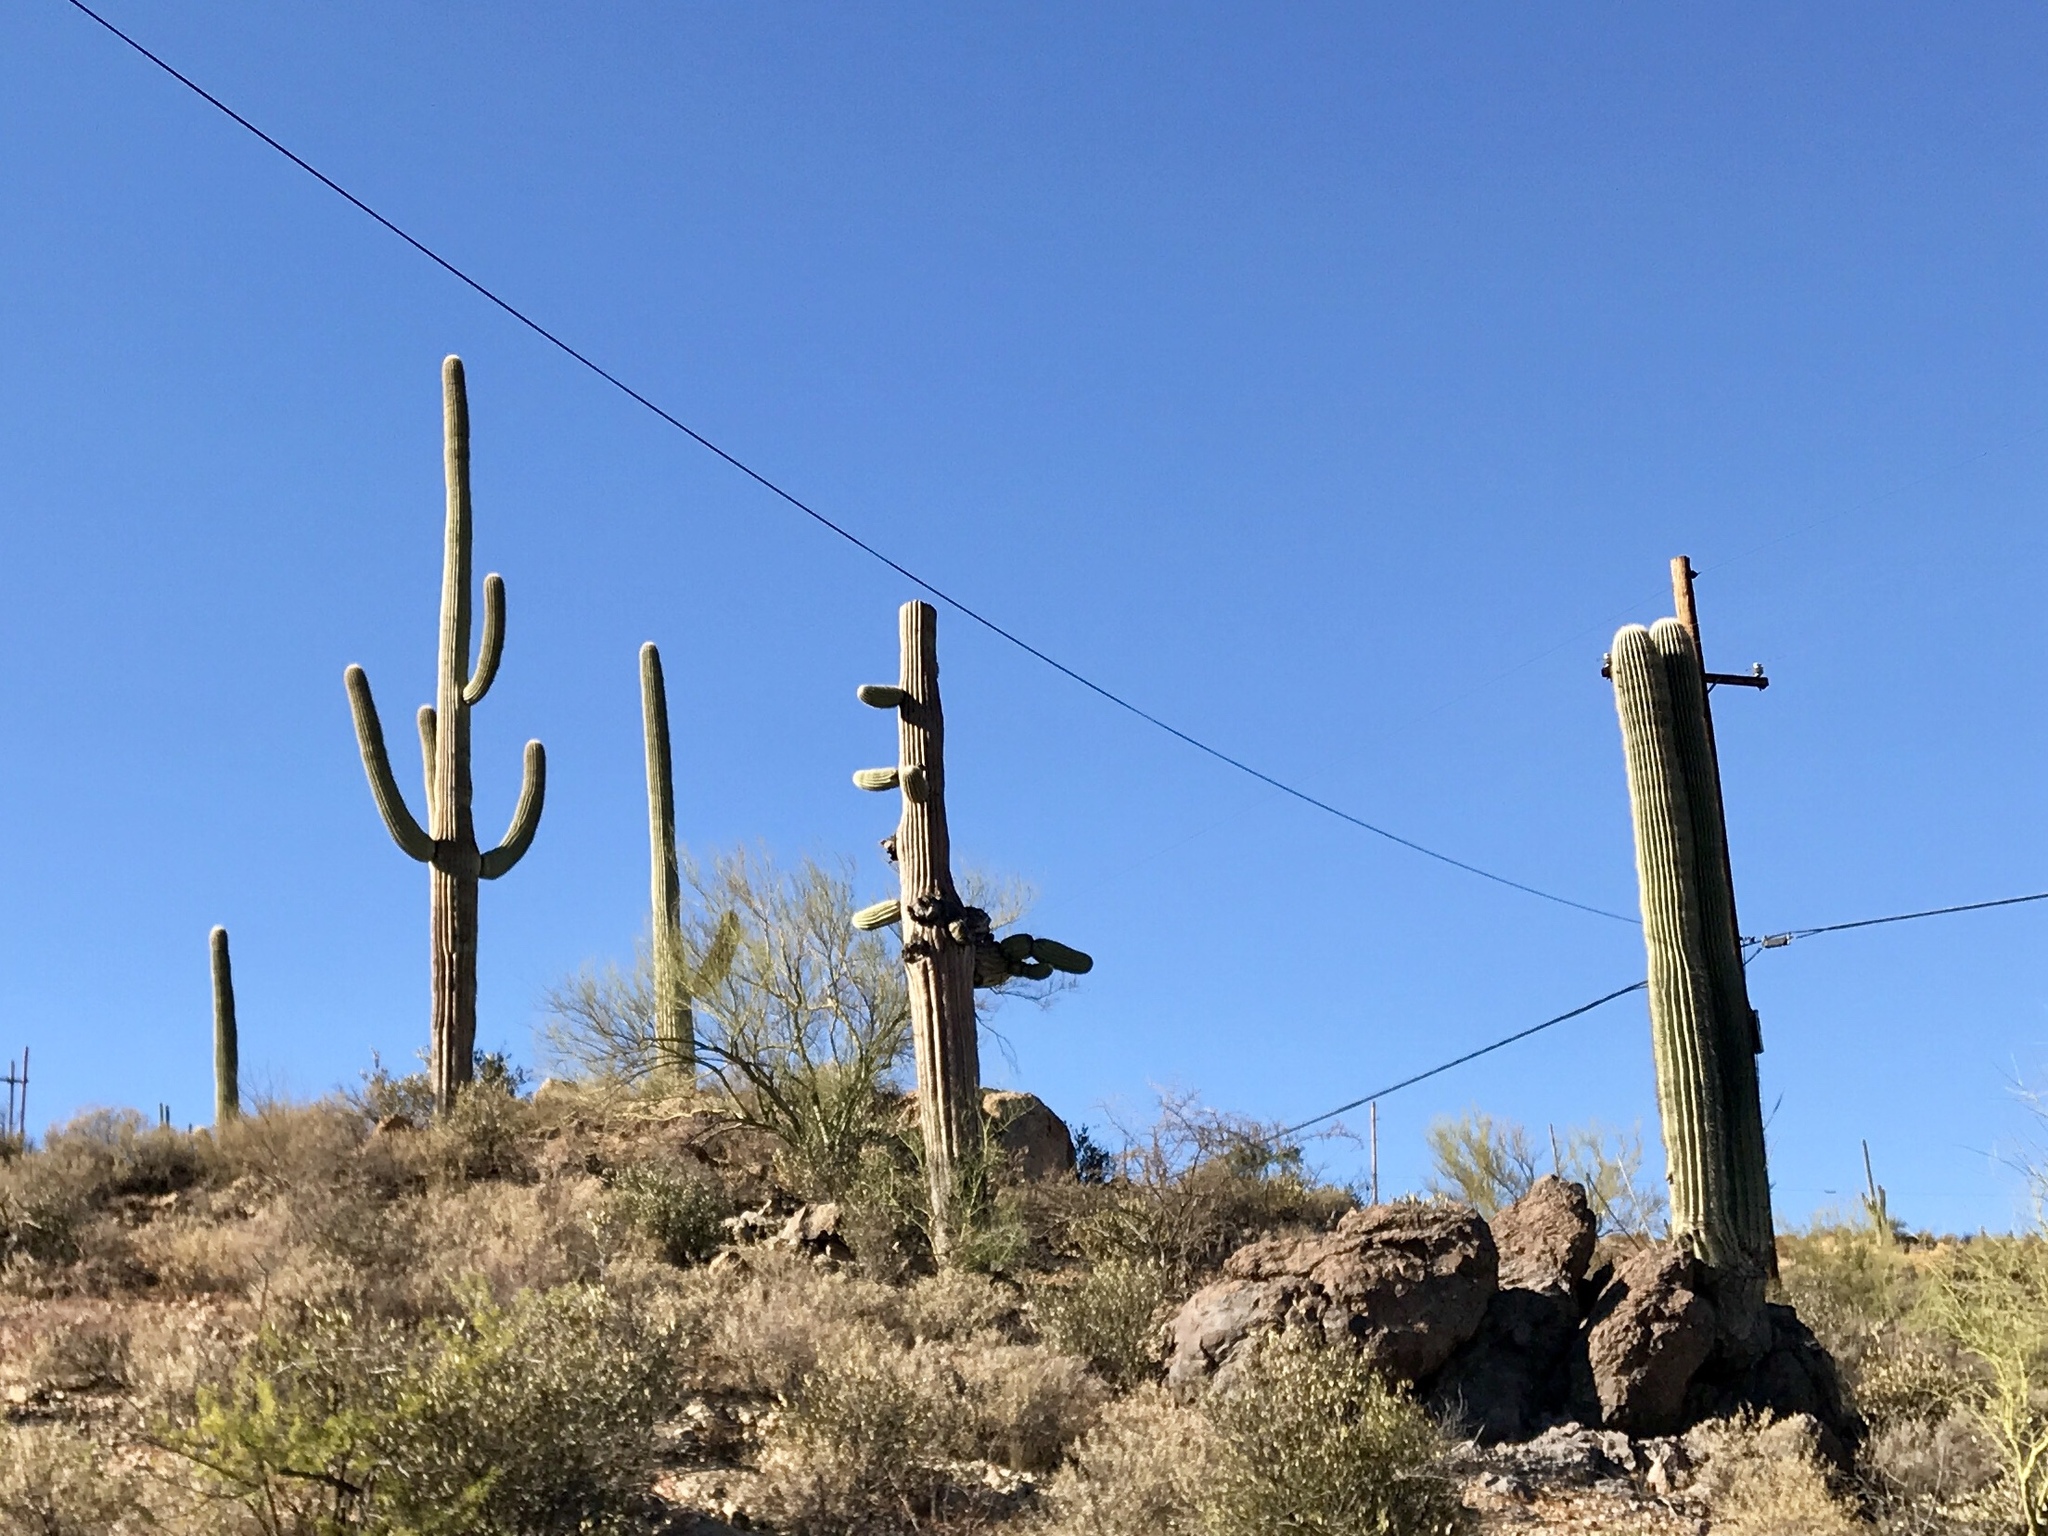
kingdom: Plantae
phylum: Tracheophyta
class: Magnoliopsida
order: Caryophyllales
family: Cactaceae
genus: Carnegiea
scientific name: Carnegiea gigantea
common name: Saguaro
